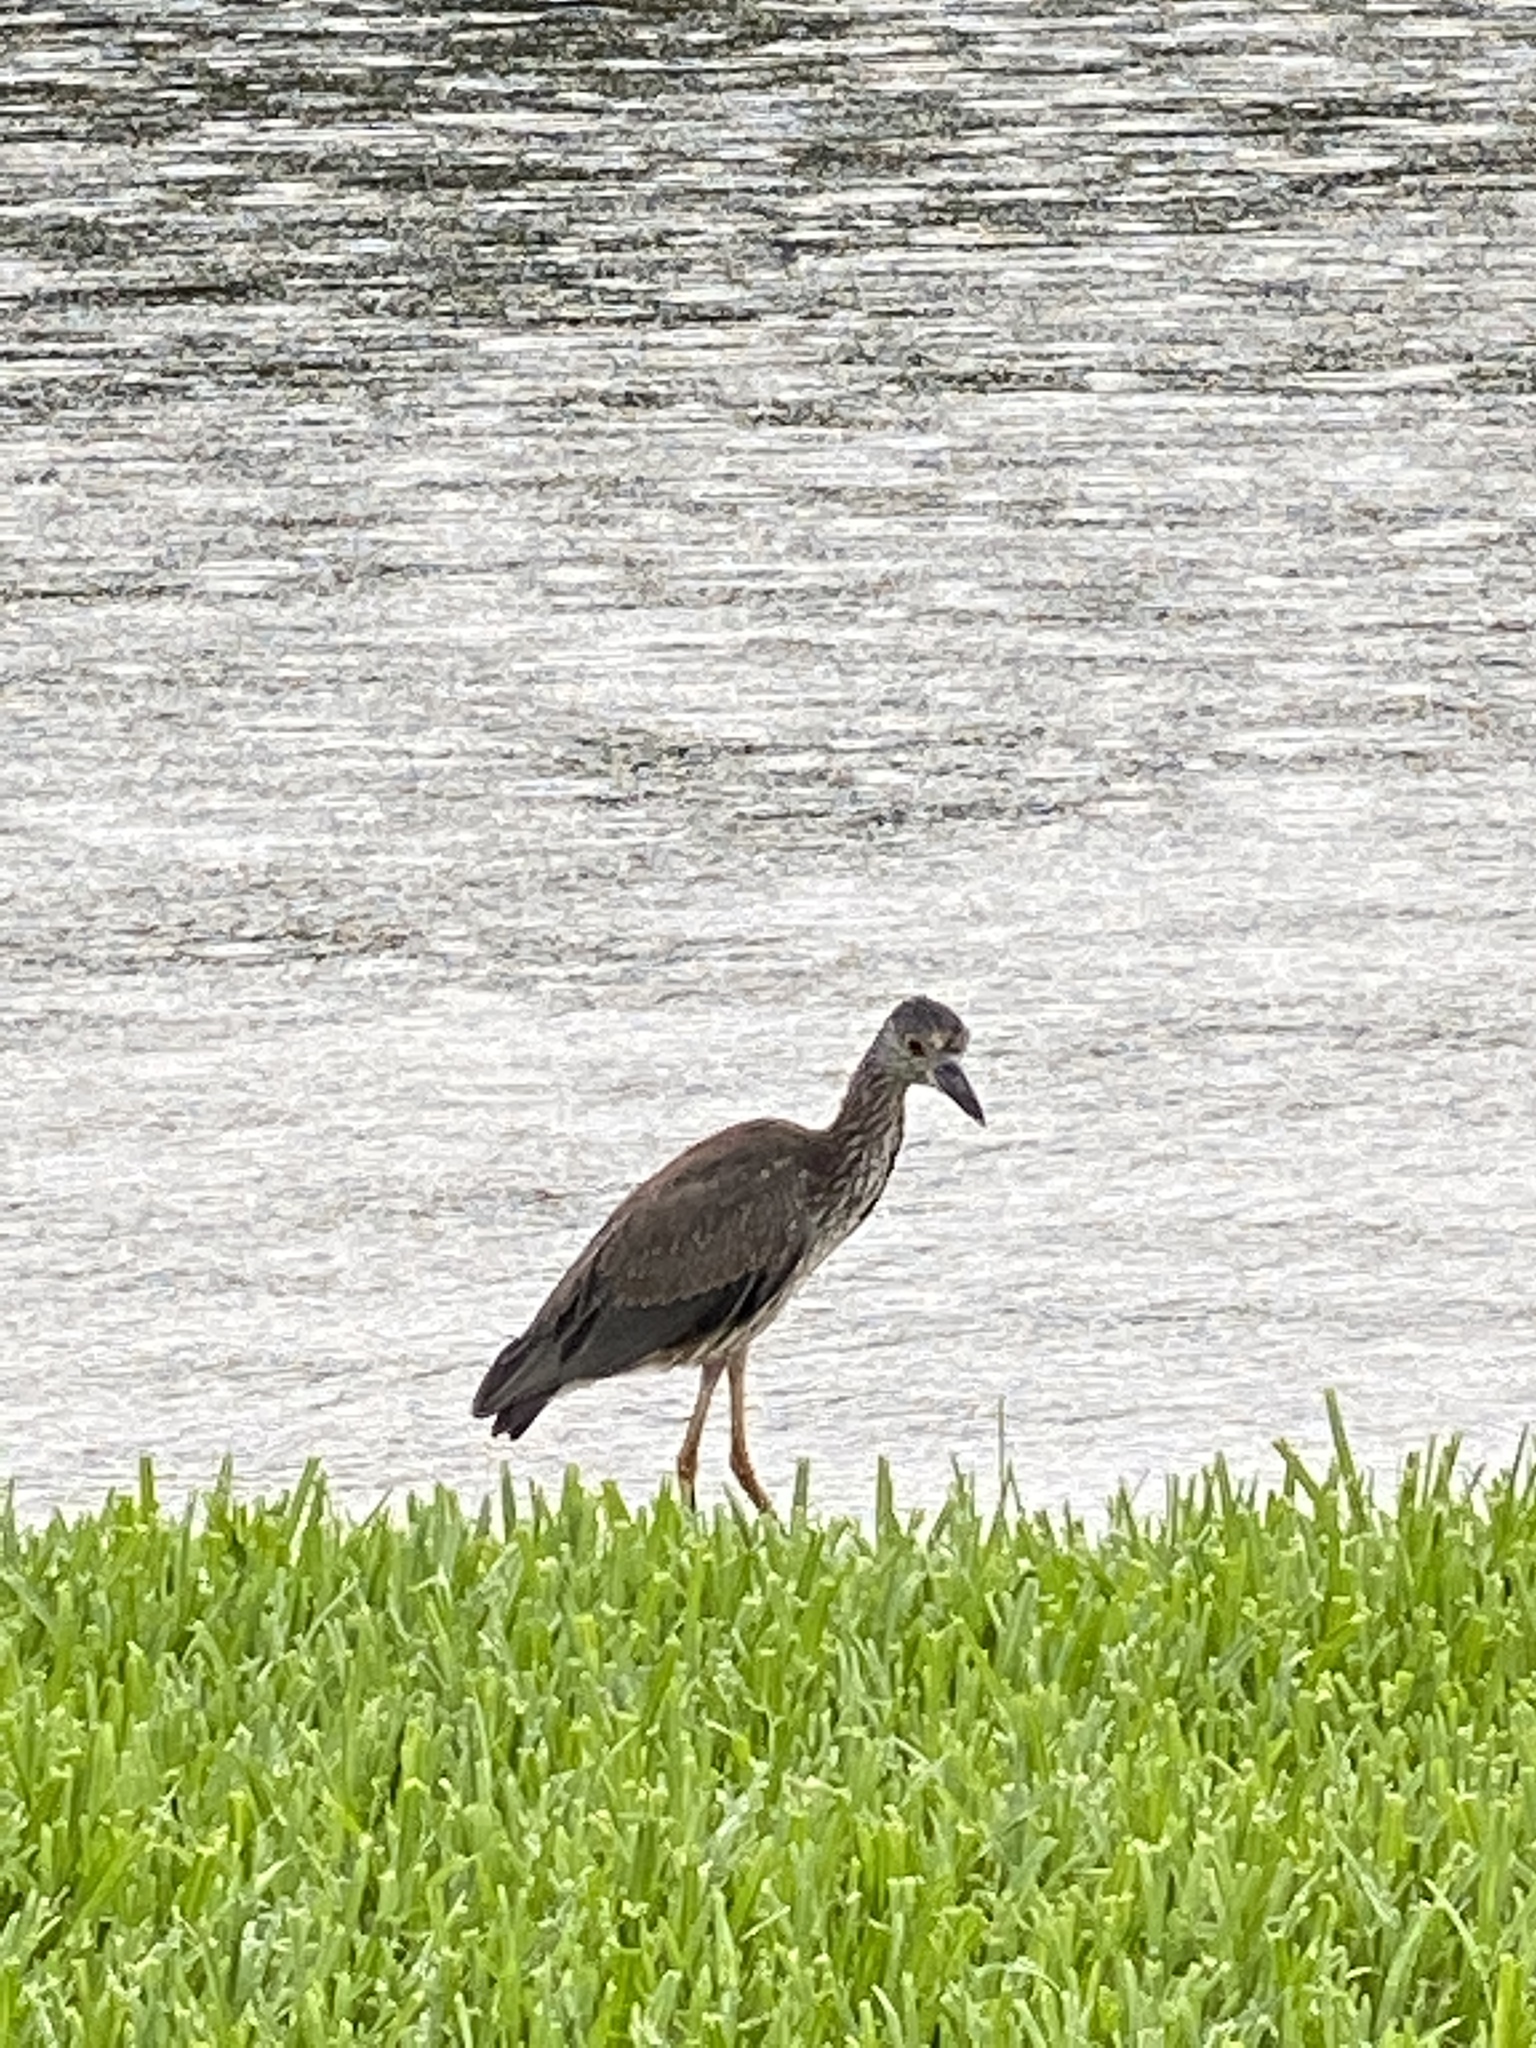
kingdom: Animalia
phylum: Chordata
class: Aves
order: Pelecaniformes
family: Ardeidae
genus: Nyctanassa
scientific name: Nyctanassa violacea
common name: Yellow-crowned night heron
